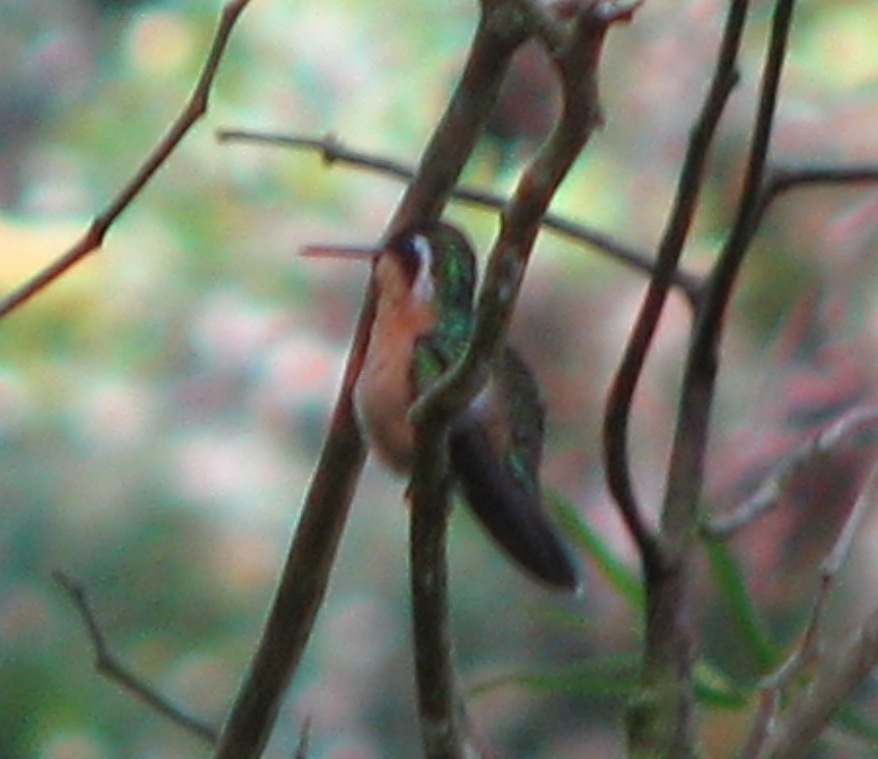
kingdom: Animalia
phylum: Chordata
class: Aves
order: Apodiformes
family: Trochilidae
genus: Lampornis
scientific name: Lampornis castaneoventris
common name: White-throated mountain-gem
